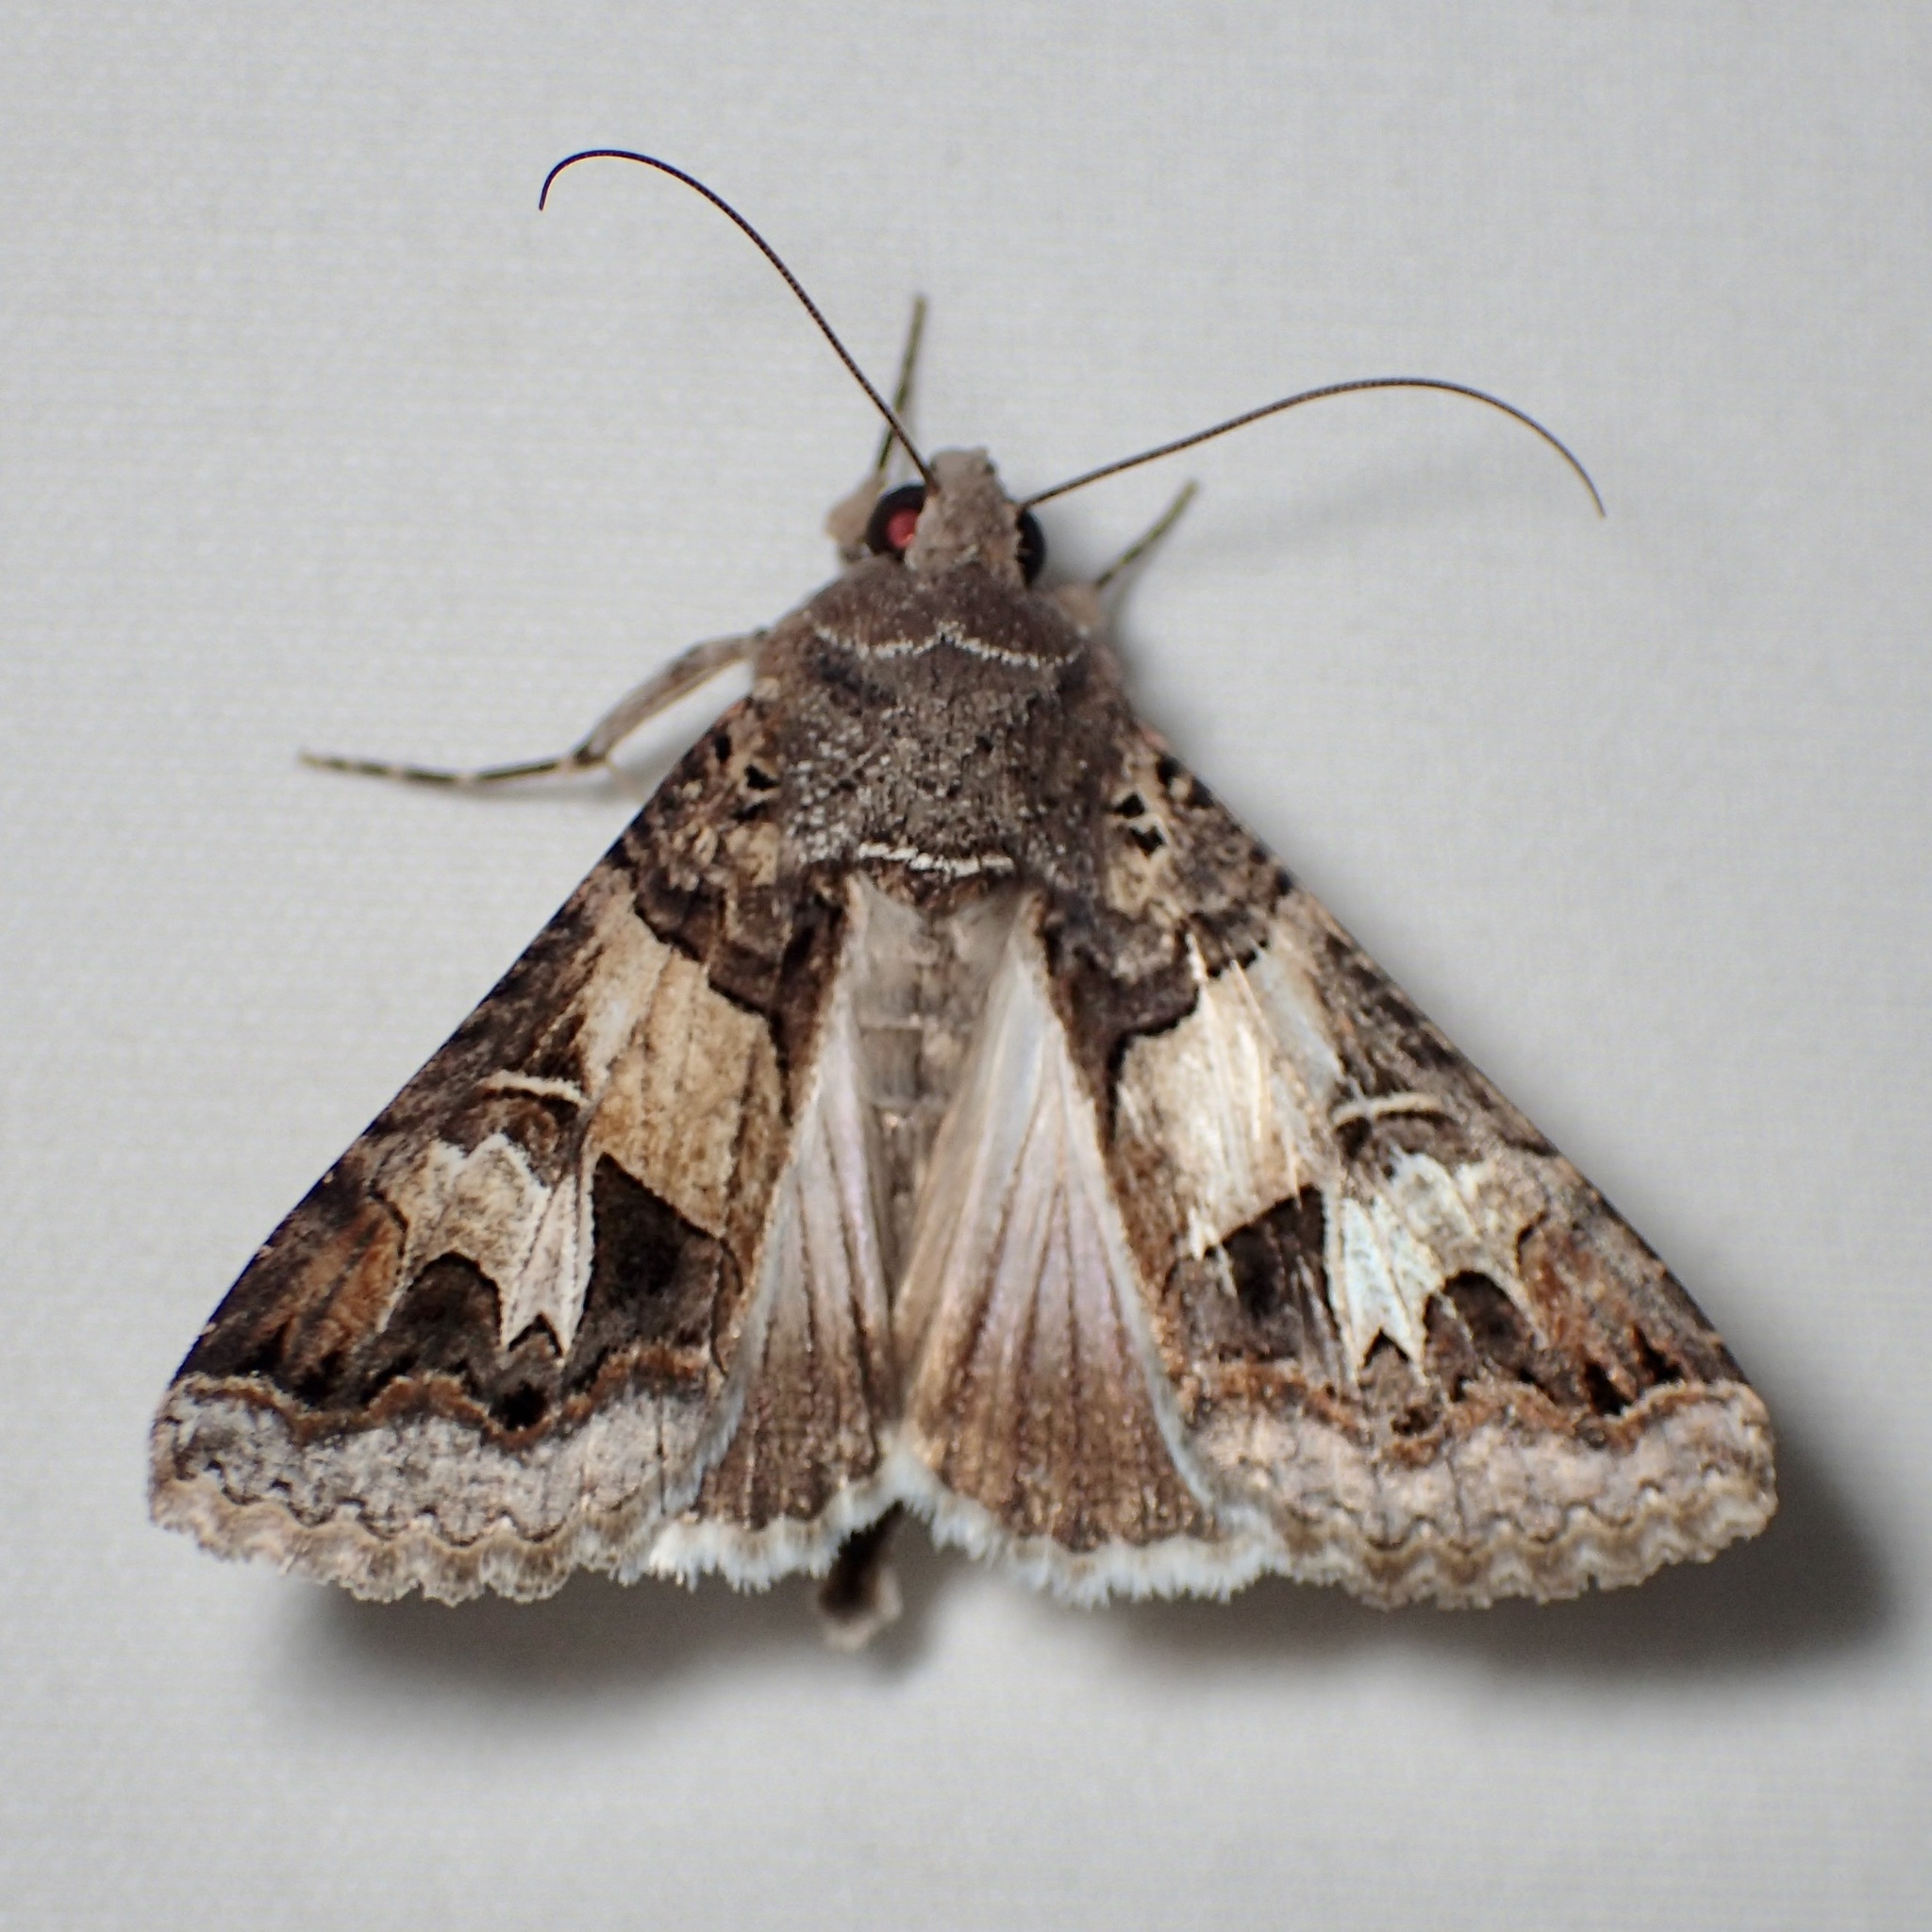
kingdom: Animalia
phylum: Arthropoda
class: Insecta
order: Lepidoptera
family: Erebidae
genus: Melipotis
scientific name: Melipotis novanda
